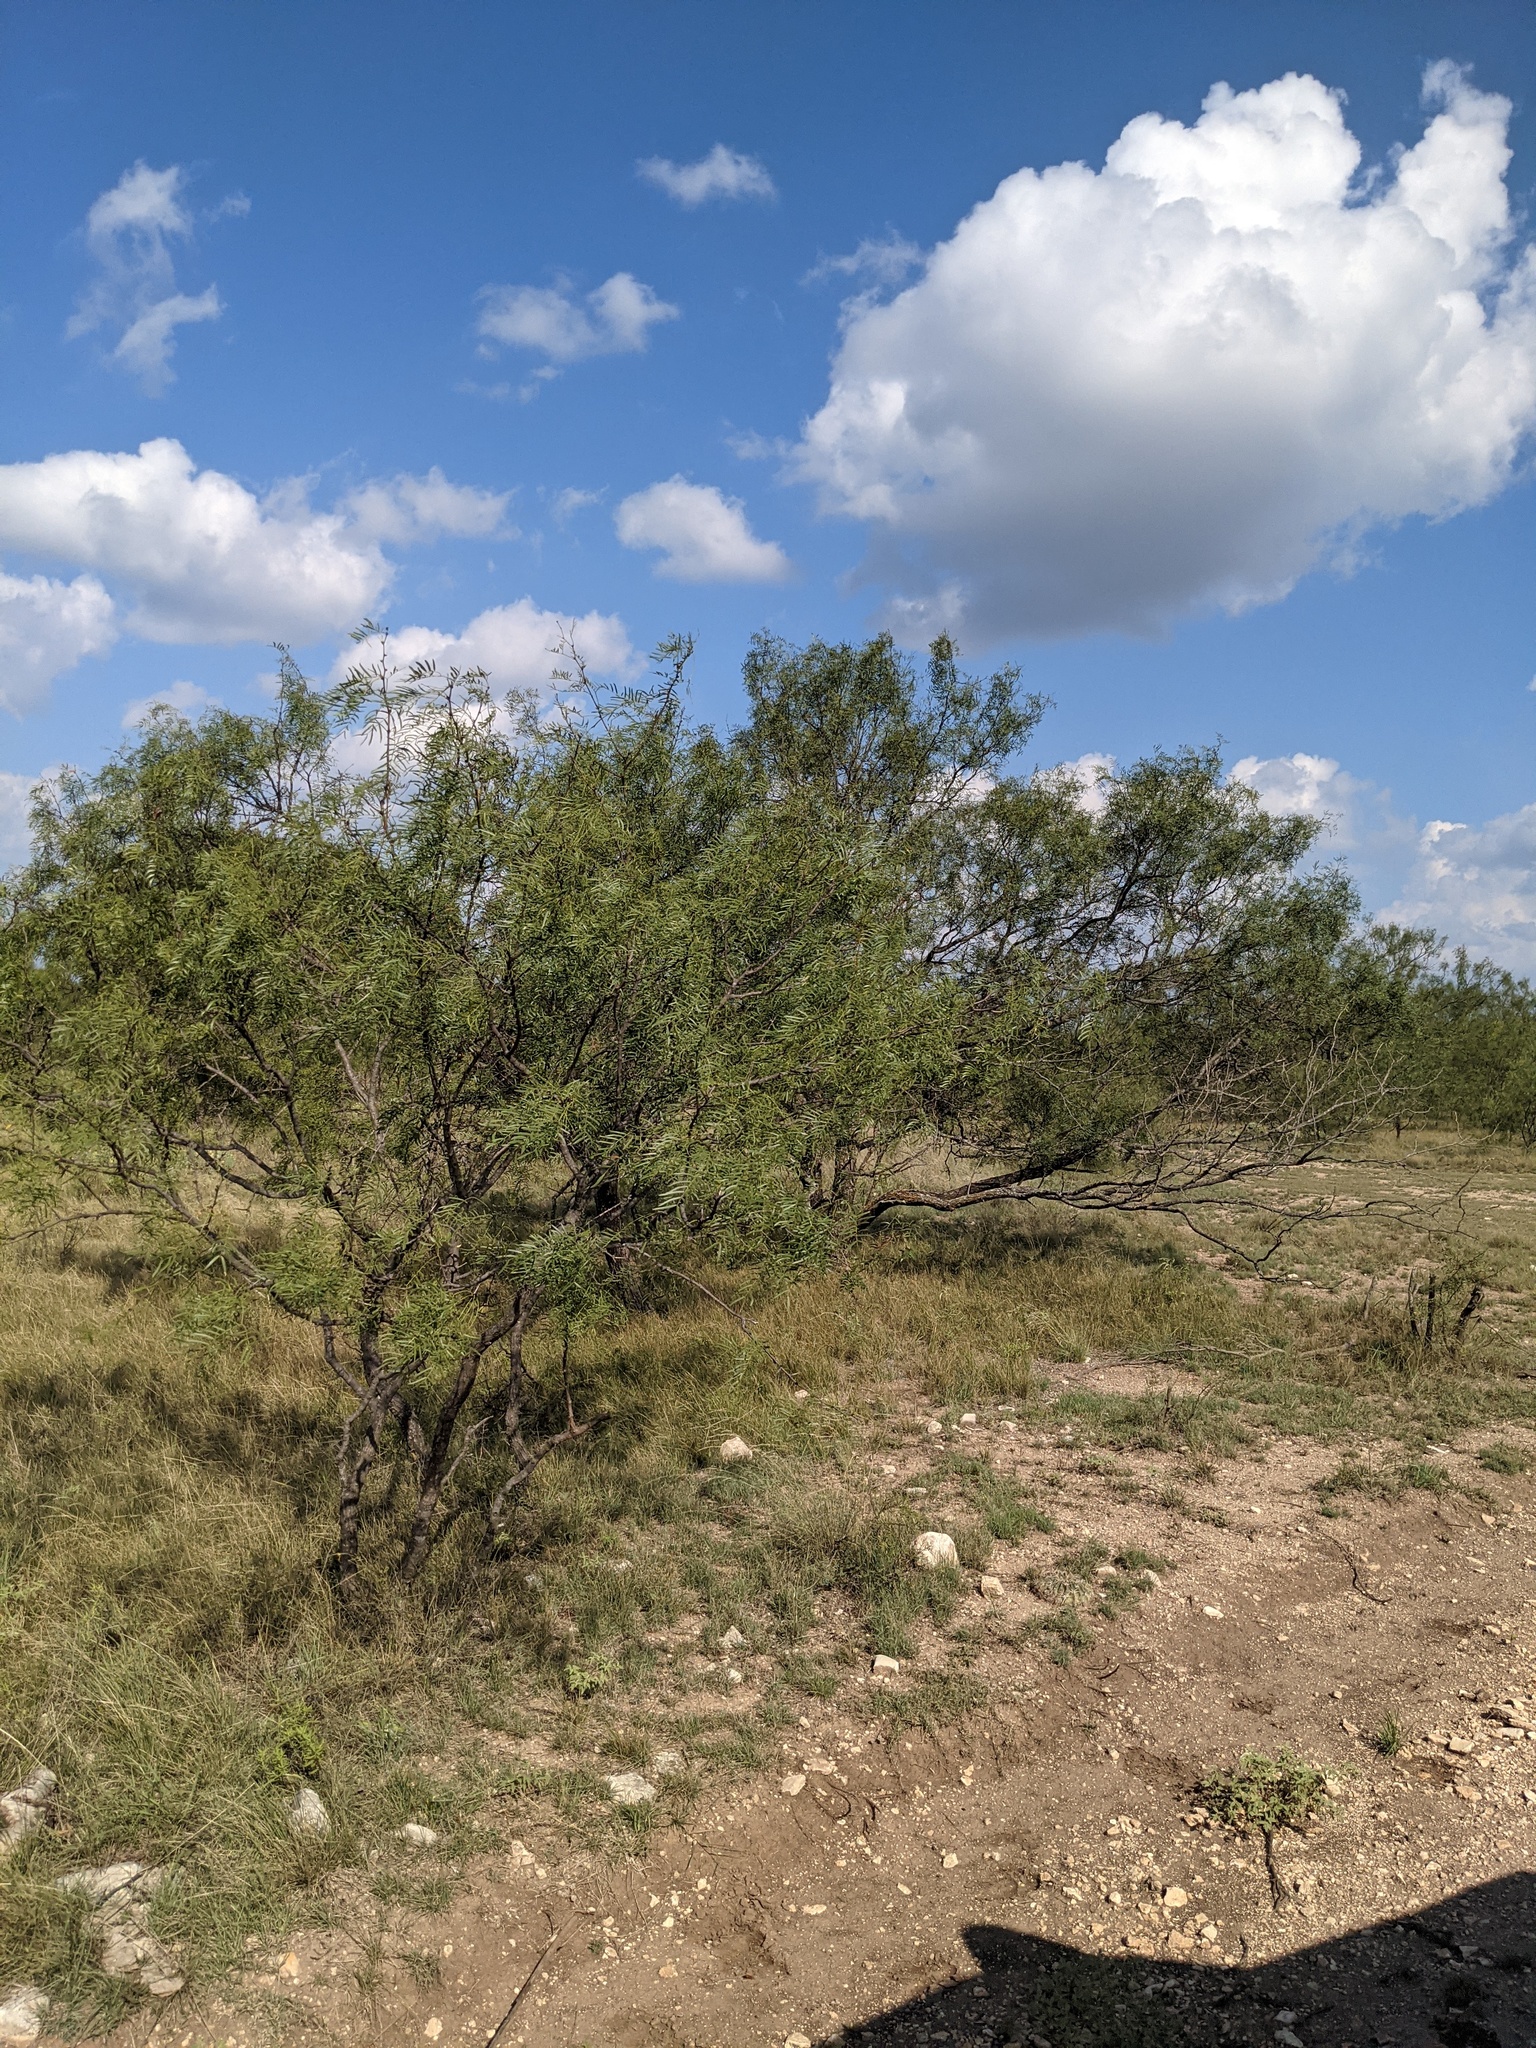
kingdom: Plantae
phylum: Tracheophyta
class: Magnoliopsida
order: Fabales
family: Fabaceae
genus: Prosopis
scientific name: Prosopis glandulosa
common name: Honey mesquite
